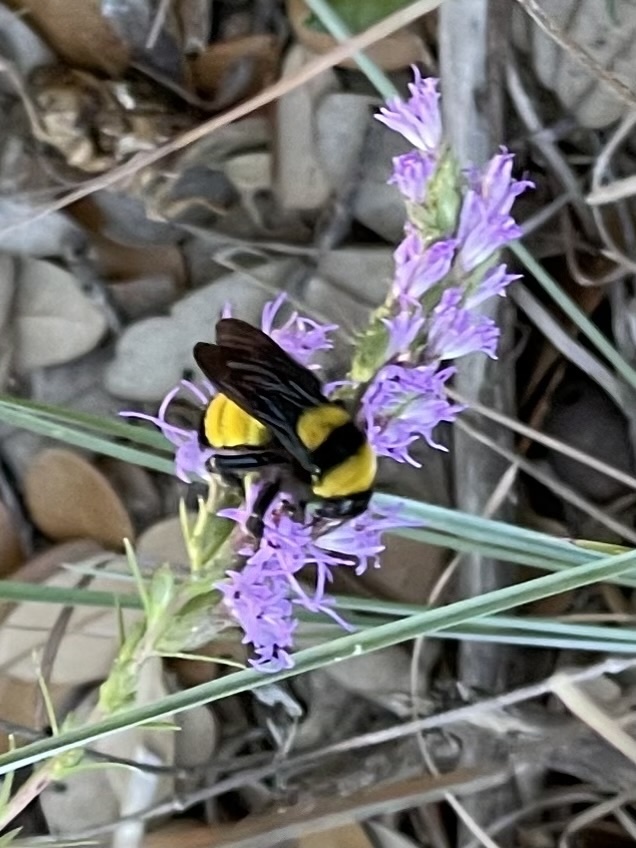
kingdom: Animalia
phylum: Arthropoda
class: Insecta
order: Hymenoptera
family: Apidae
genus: Bombus
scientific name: Bombus sonorus
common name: Sonoran bumble bee
